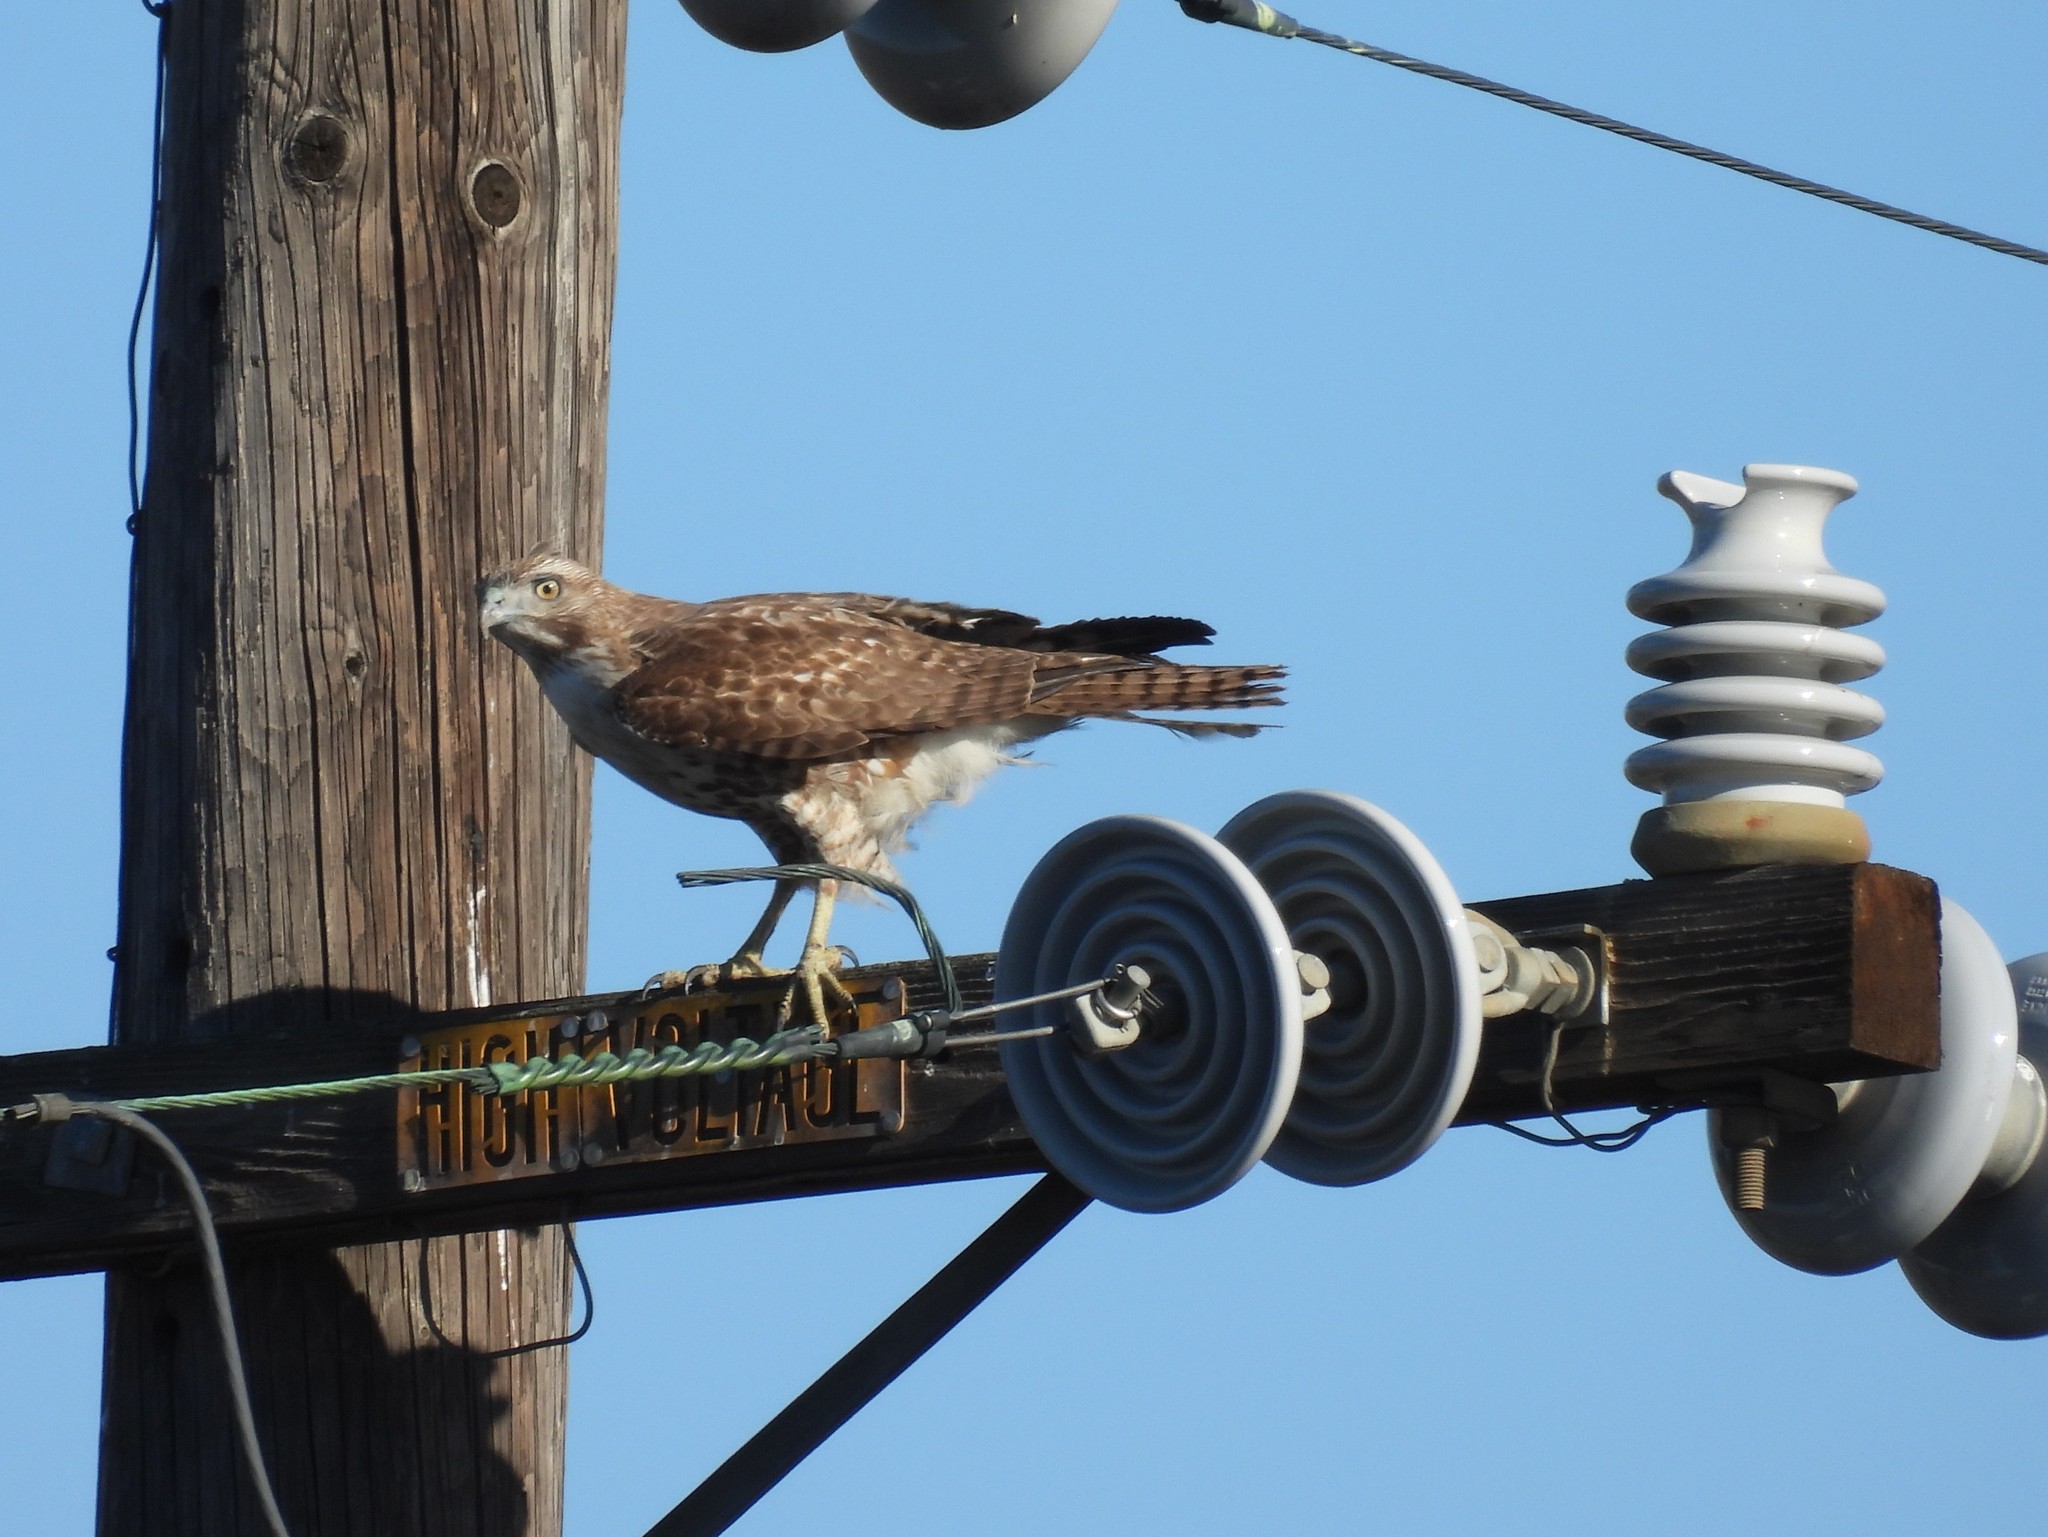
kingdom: Animalia
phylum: Chordata
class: Aves
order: Accipitriformes
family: Accipitridae
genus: Buteo
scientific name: Buteo jamaicensis
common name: Red-tailed hawk
